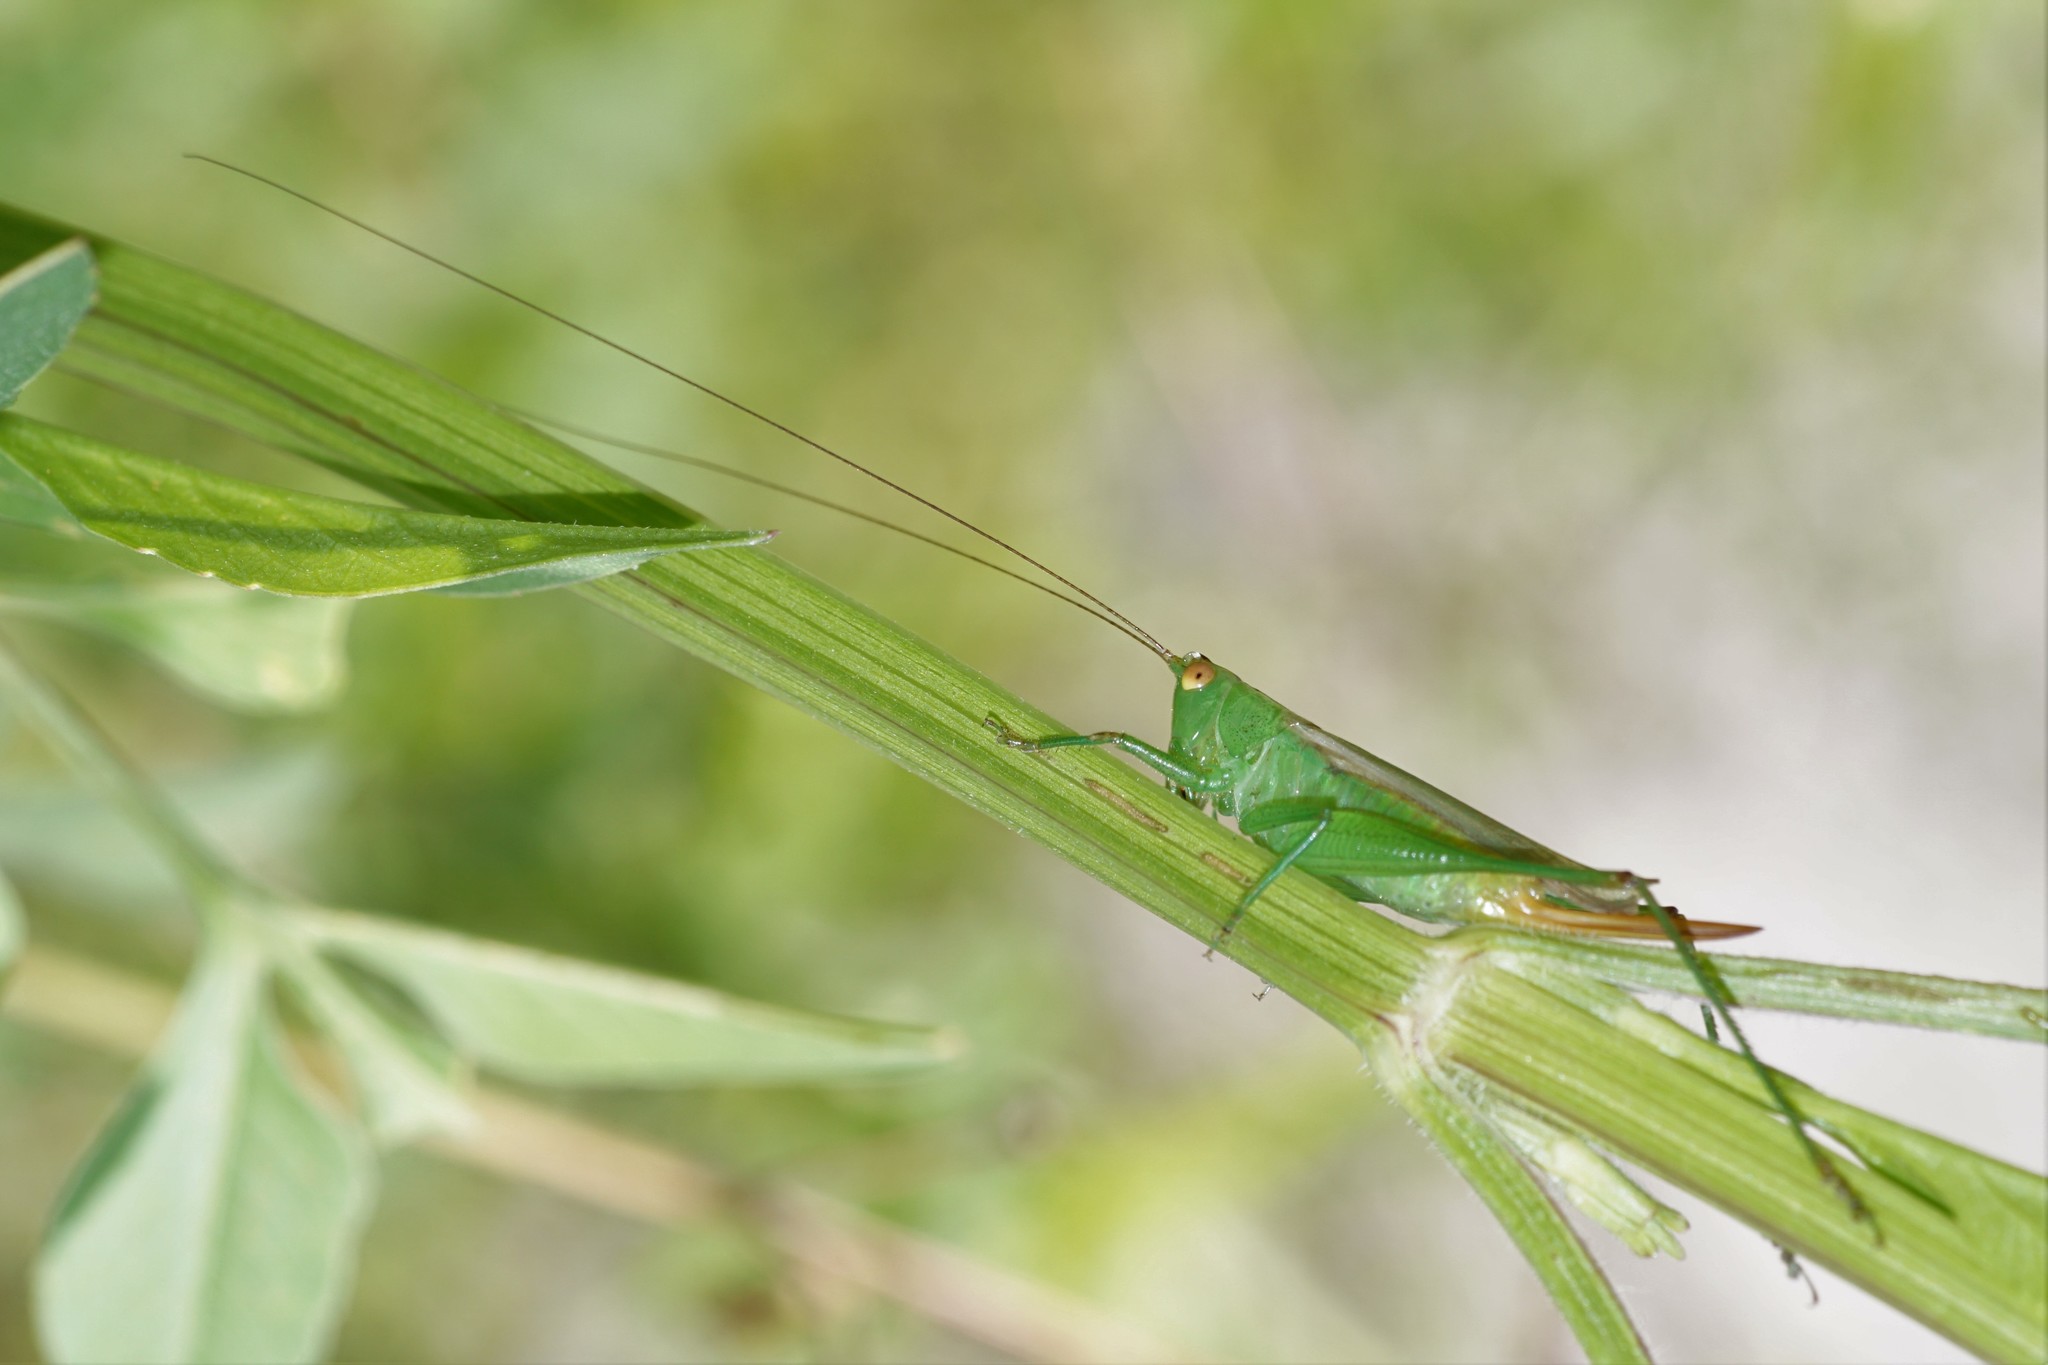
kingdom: Animalia
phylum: Arthropoda
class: Insecta
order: Orthoptera
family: Tettigoniidae
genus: Conocephalus
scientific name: Conocephalus cinereus
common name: Caribbean meadow katydid
